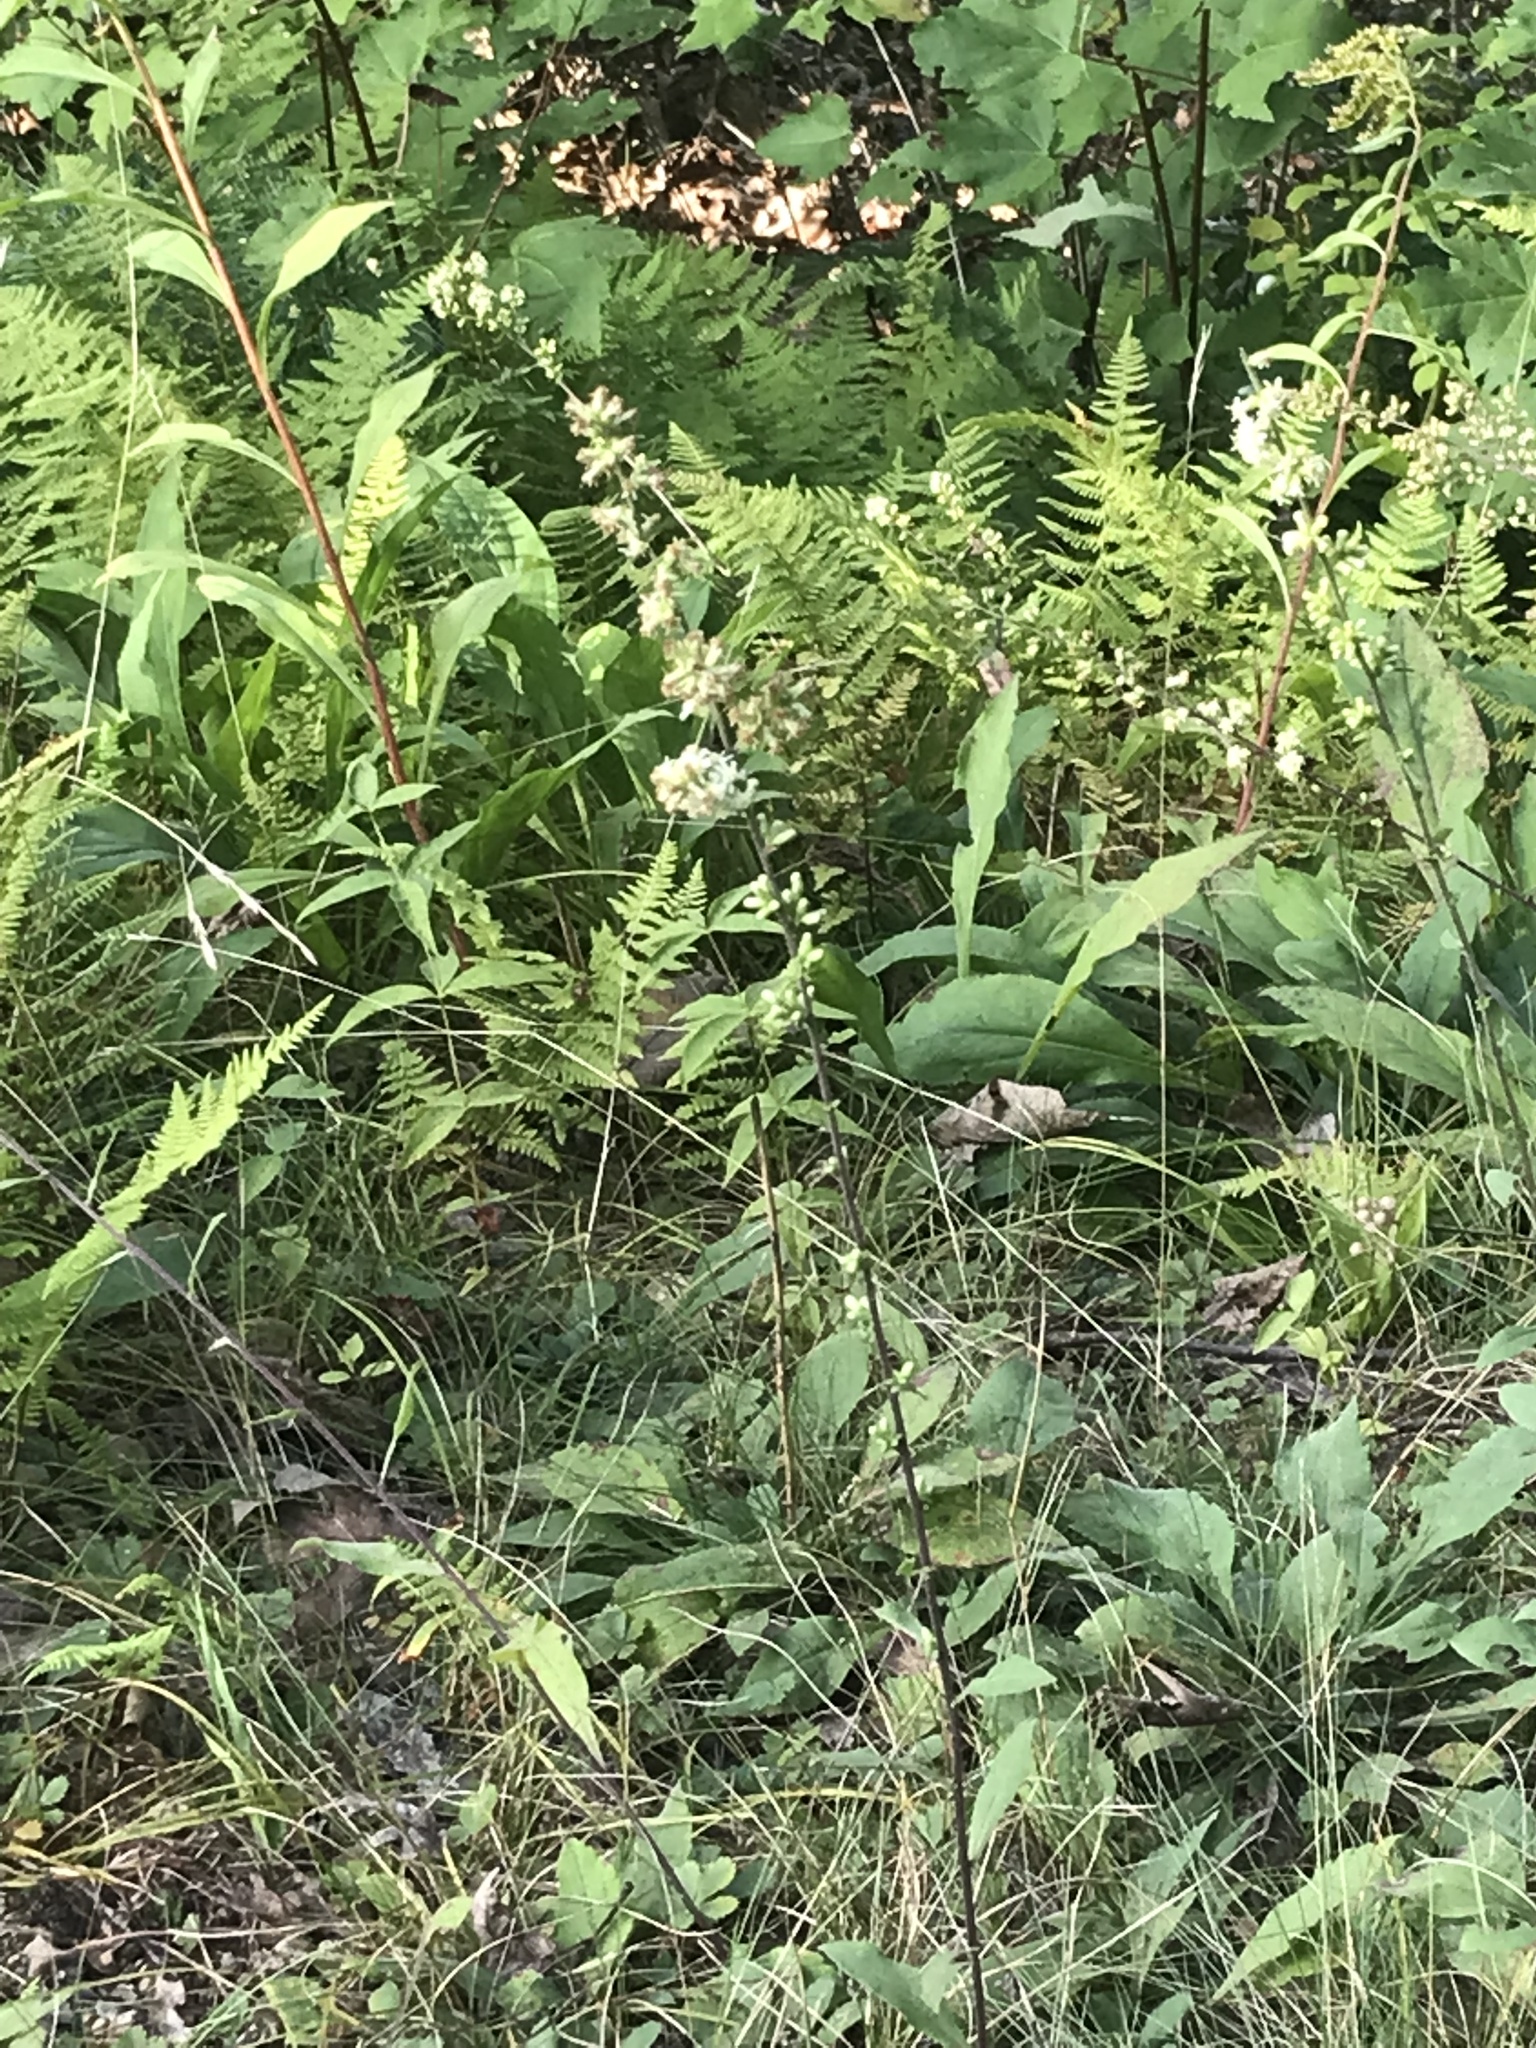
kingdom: Plantae
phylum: Tracheophyta
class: Magnoliopsida
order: Asterales
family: Asteraceae
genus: Solidago
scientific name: Solidago bicolor
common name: Silverrod
